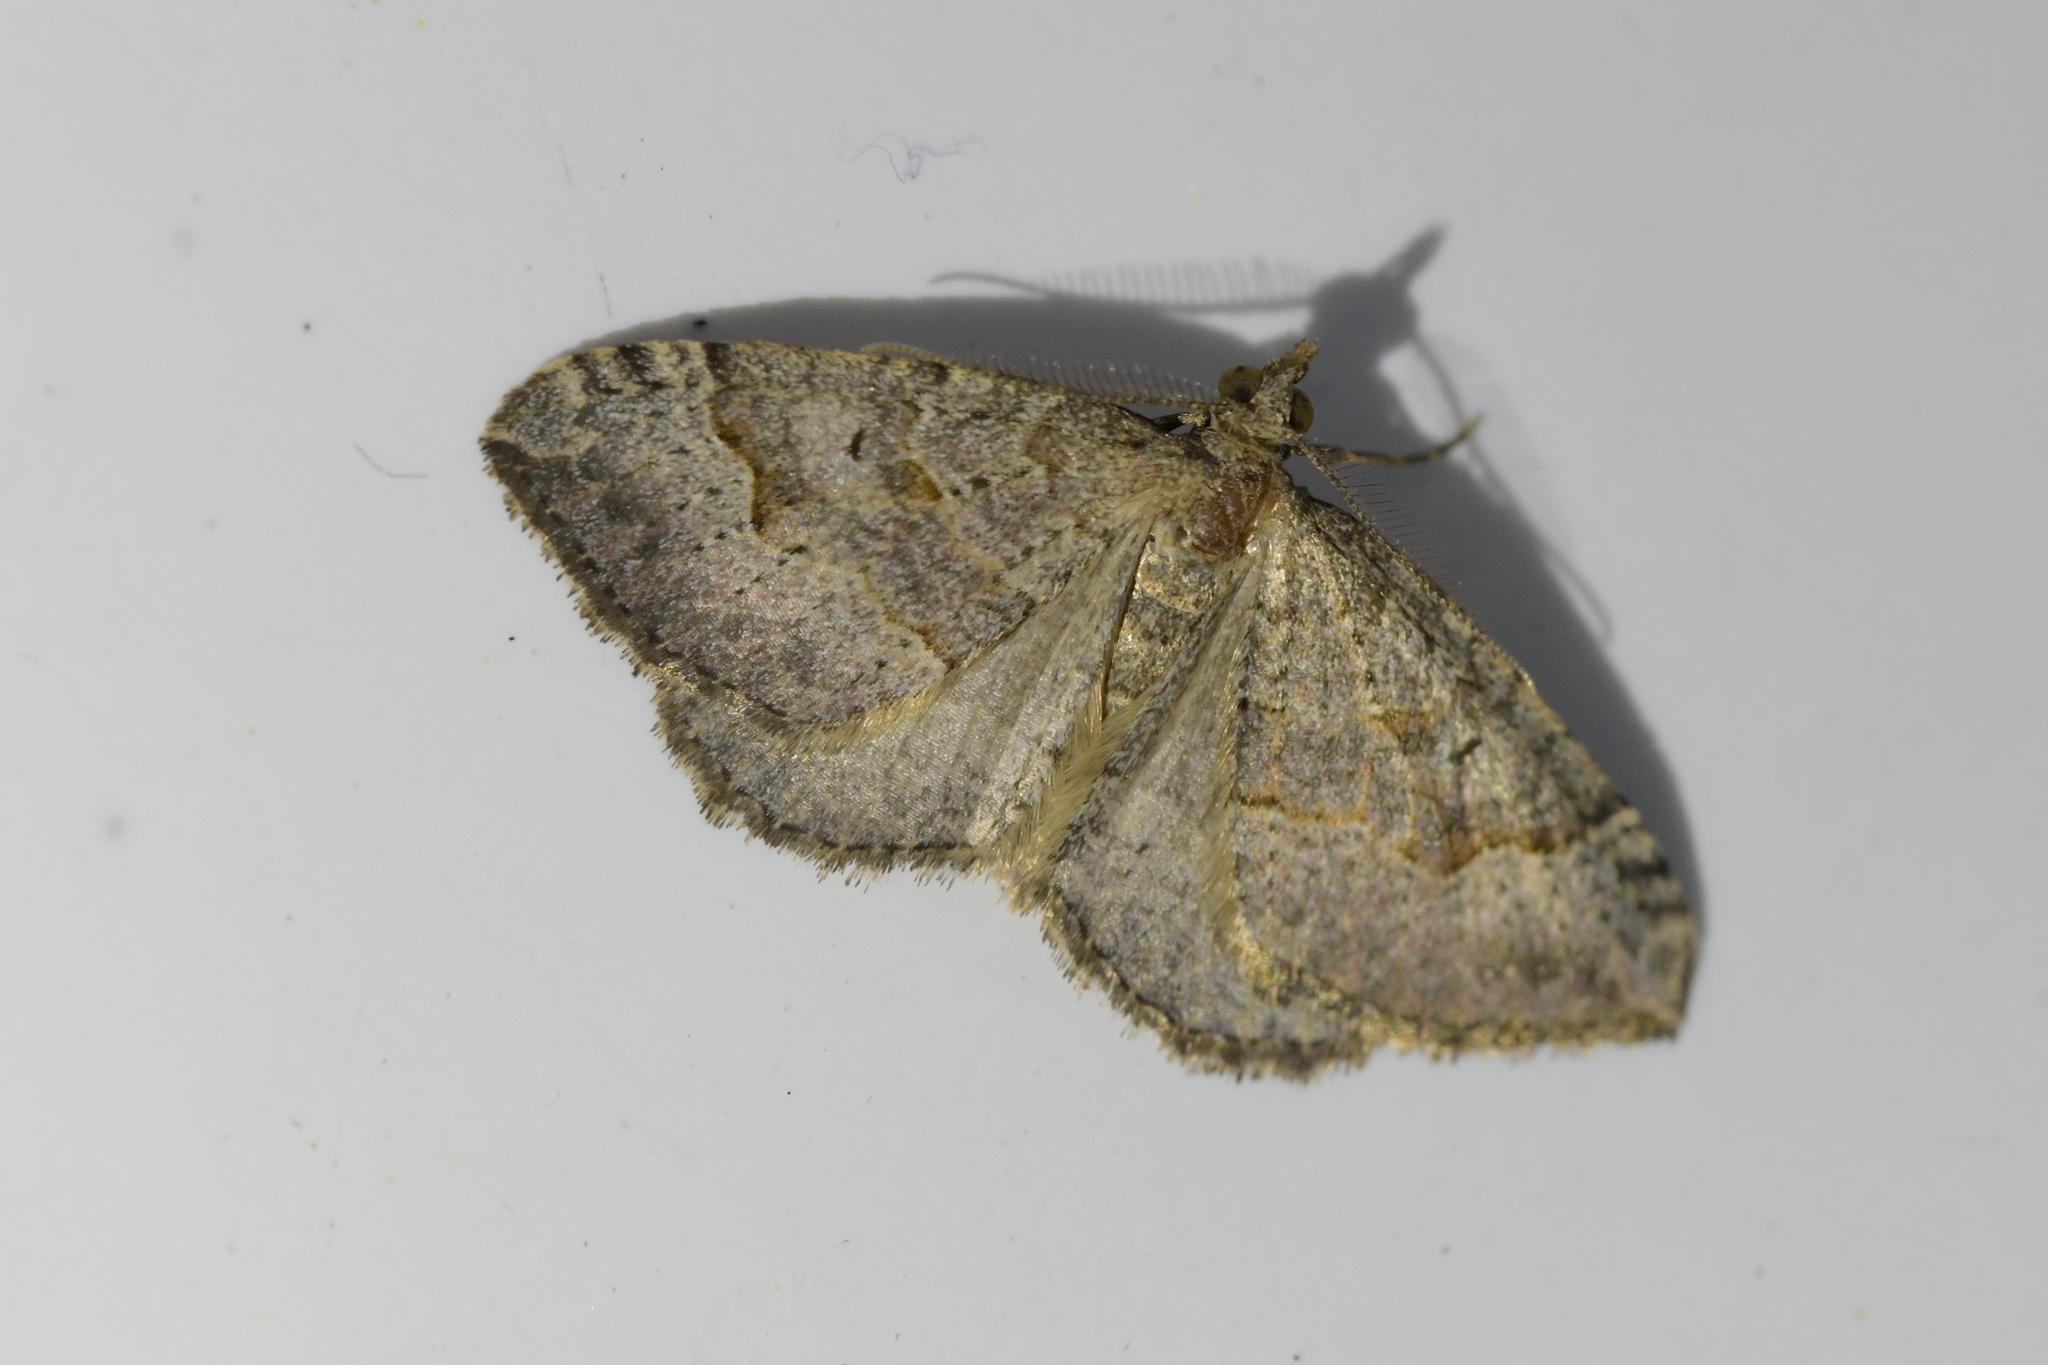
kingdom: Animalia
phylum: Arthropoda
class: Insecta
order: Lepidoptera
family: Geometridae
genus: Epyaxa
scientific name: Epyaxa rosearia
